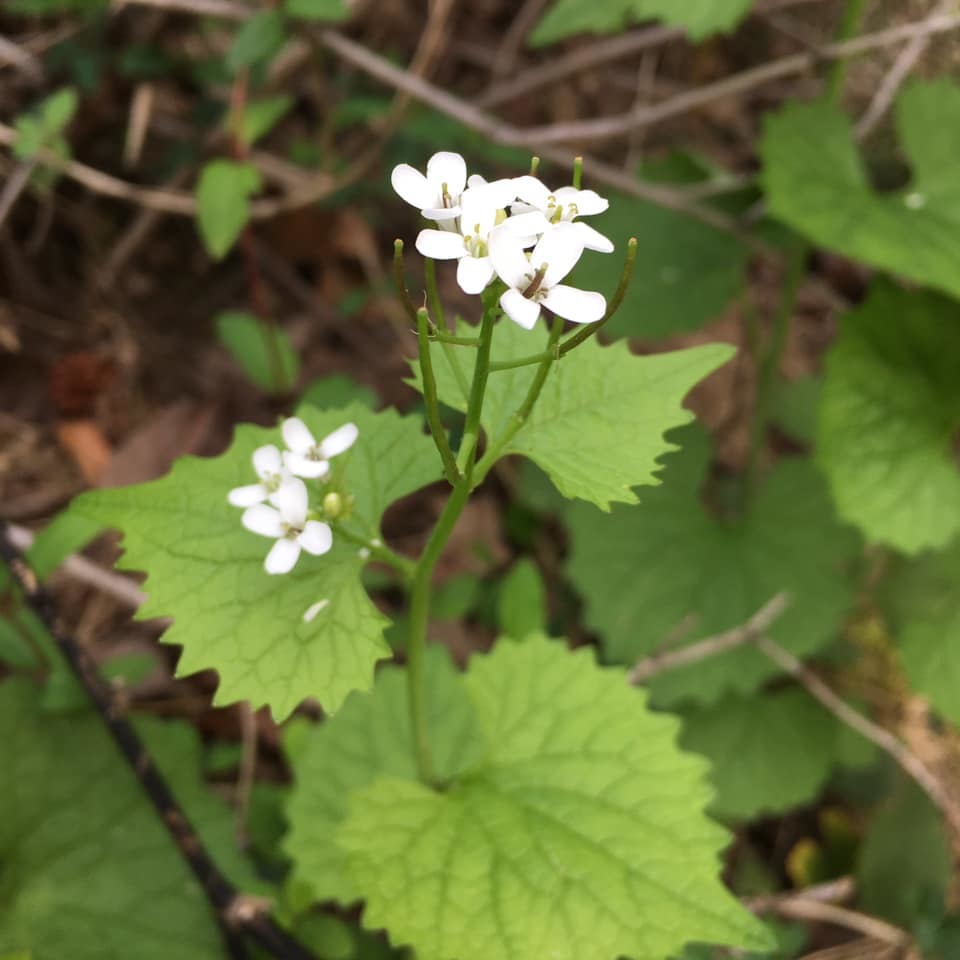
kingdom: Plantae
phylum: Tracheophyta
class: Magnoliopsida
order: Brassicales
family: Brassicaceae
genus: Alliaria
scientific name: Alliaria petiolata
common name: Garlic mustard
